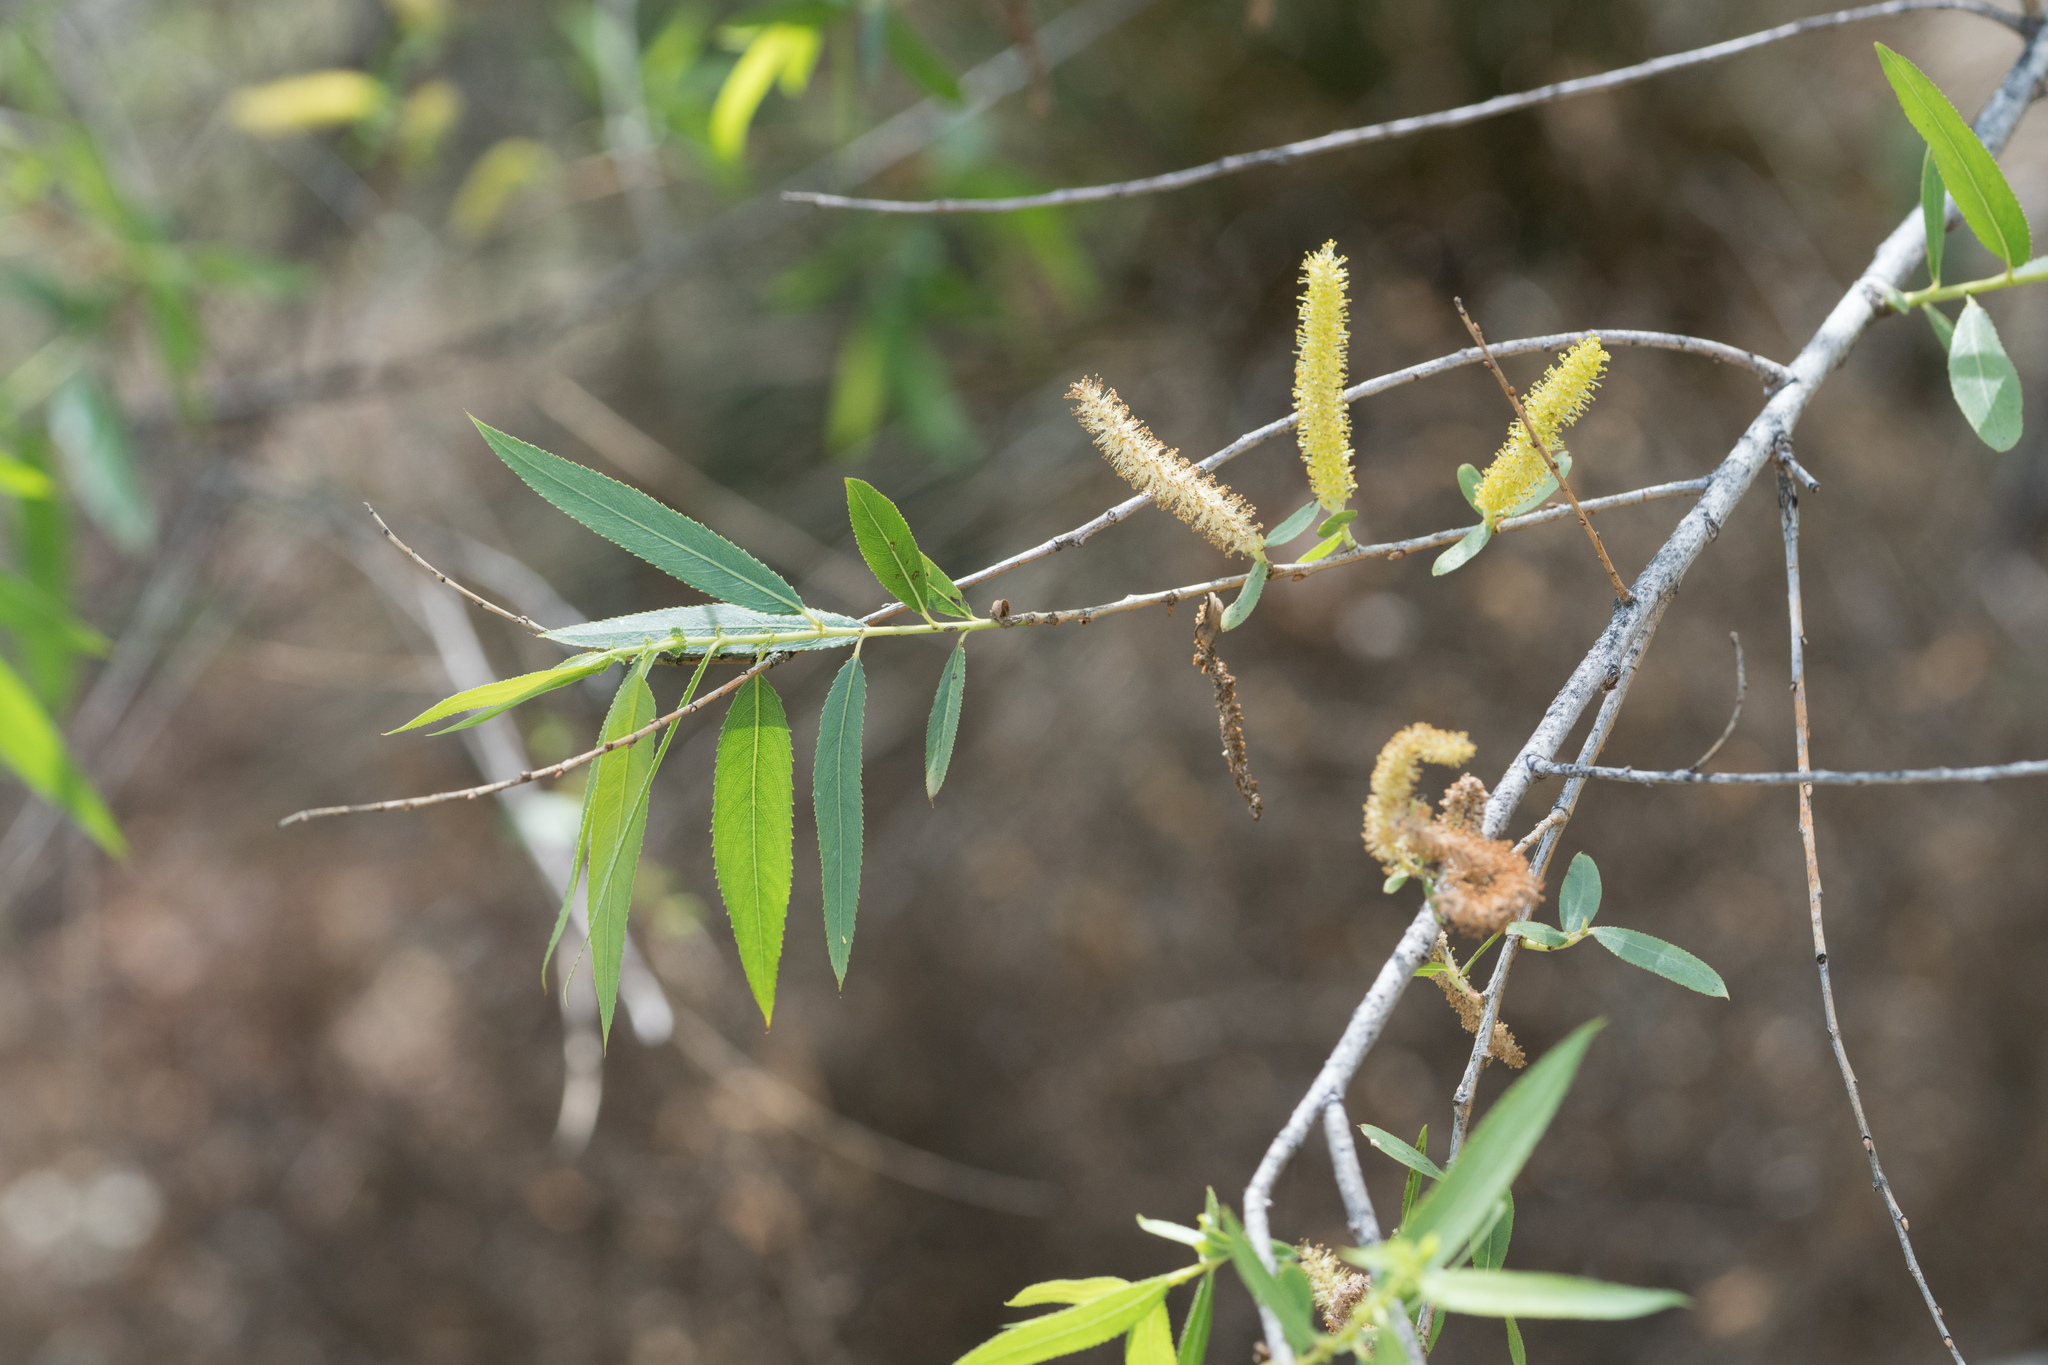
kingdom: Plantae
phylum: Tracheophyta
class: Magnoliopsida
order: Malpighiales
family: Salicaceae
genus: Salix
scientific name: Salix gooddingii
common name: Goodding's willow
